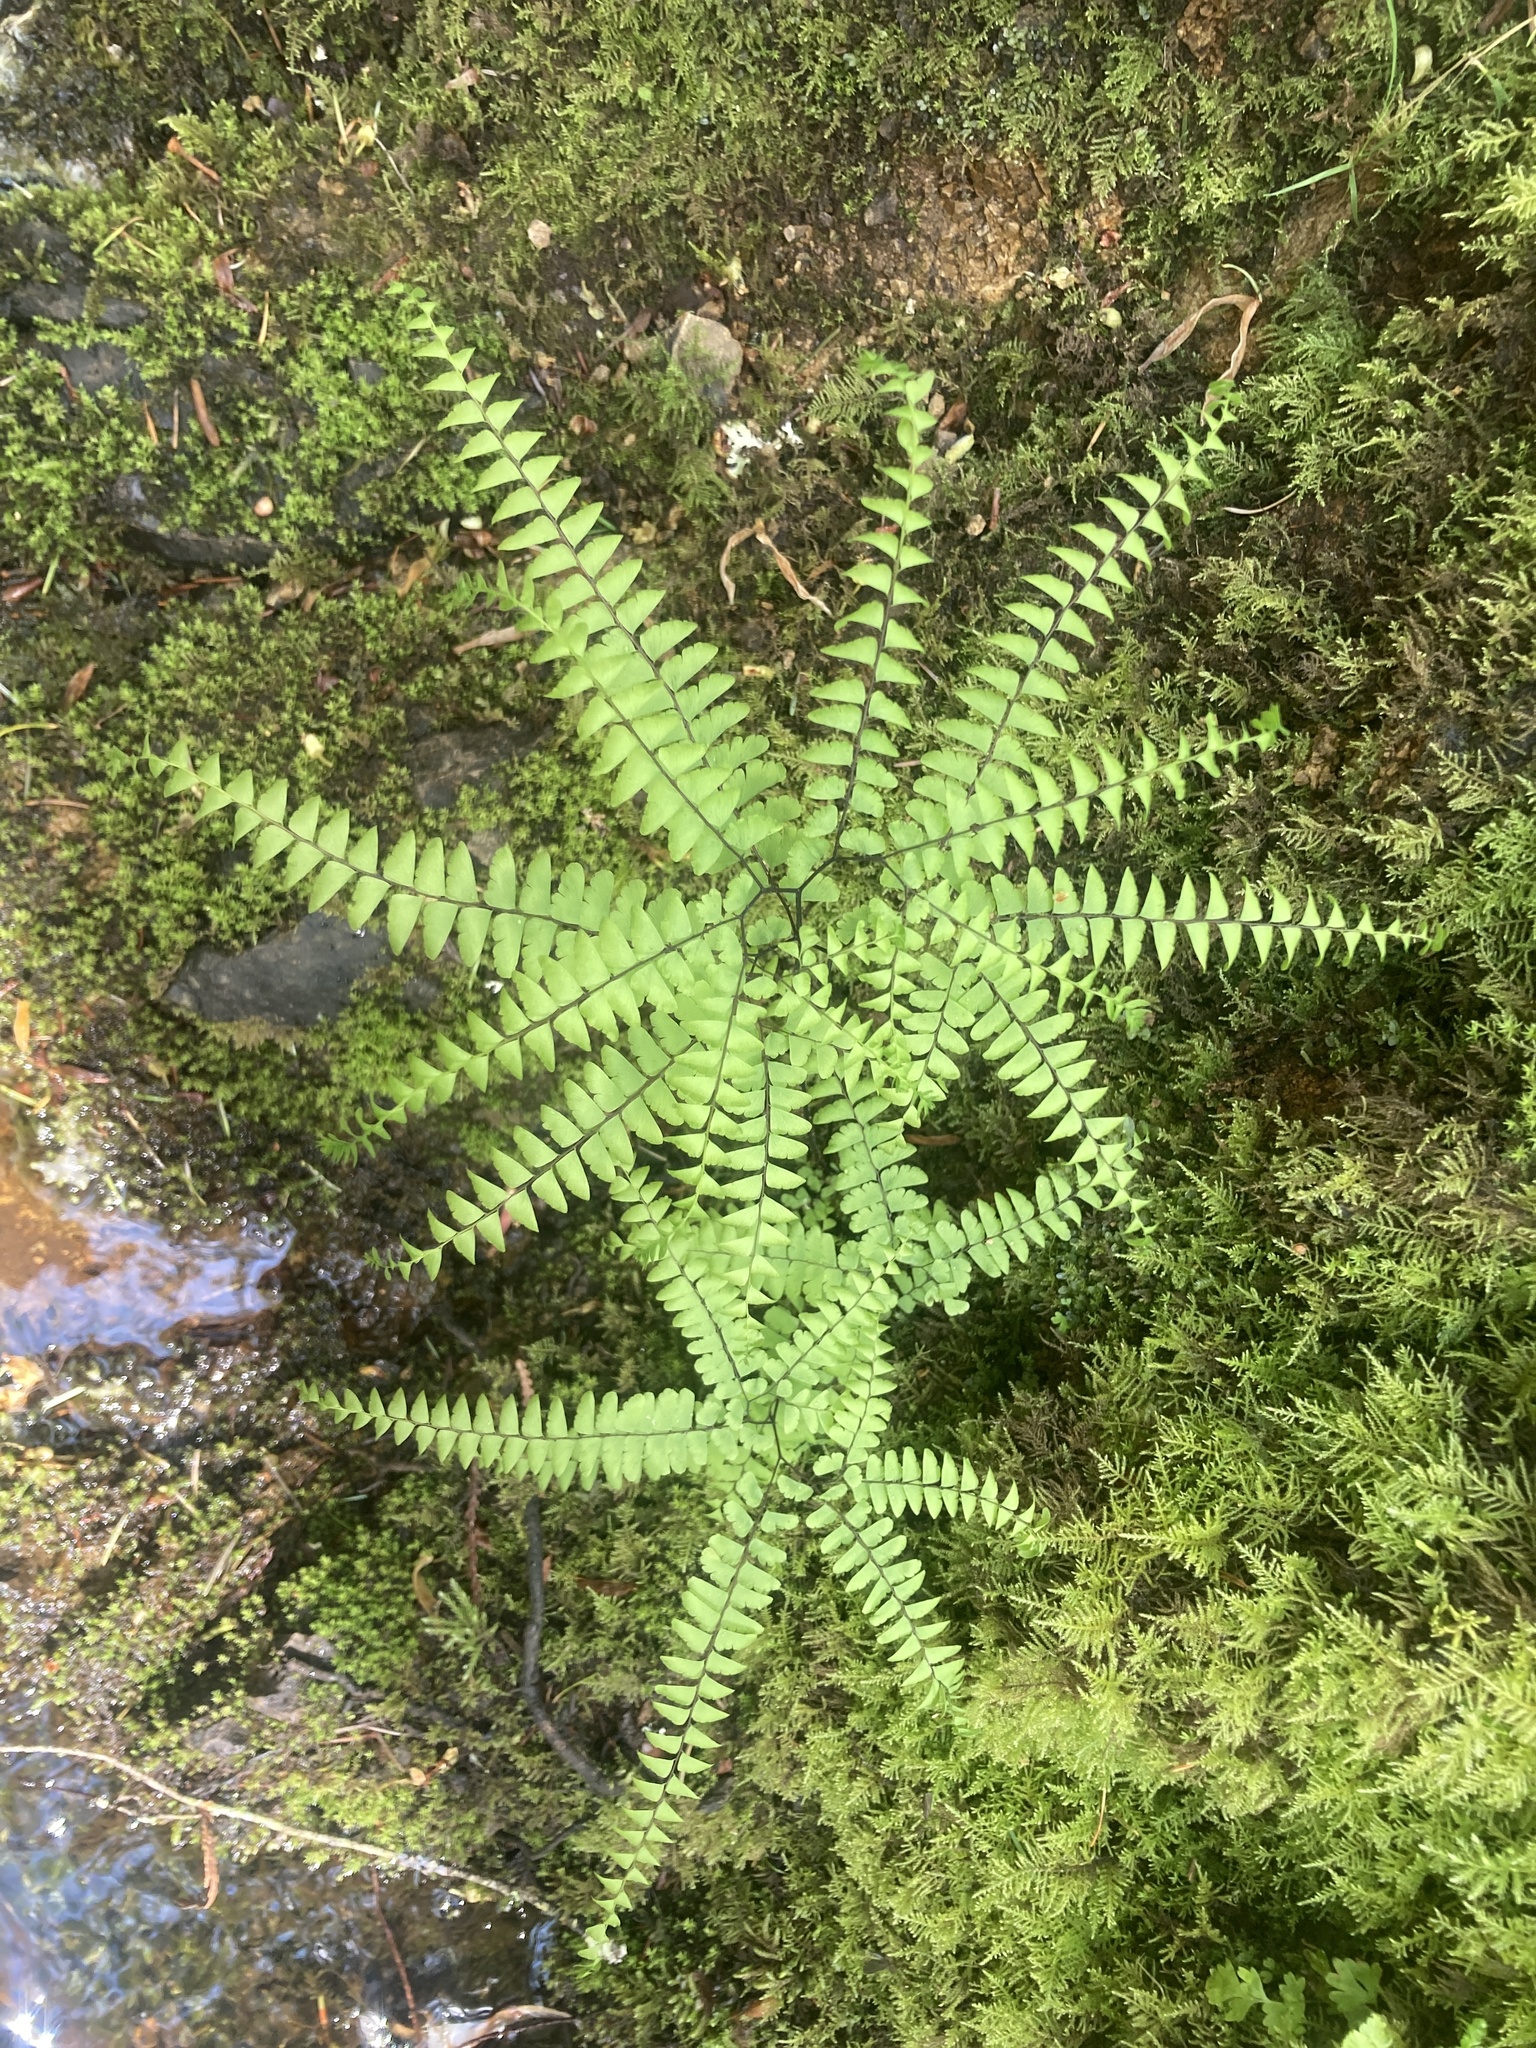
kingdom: Plantae
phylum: Tracheophyta
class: Polypodiopsida
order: Polypodiales
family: Pteridaceae
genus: Adiantum
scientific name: Adiantum aleuticum
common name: Aleutian maidenhair fern
